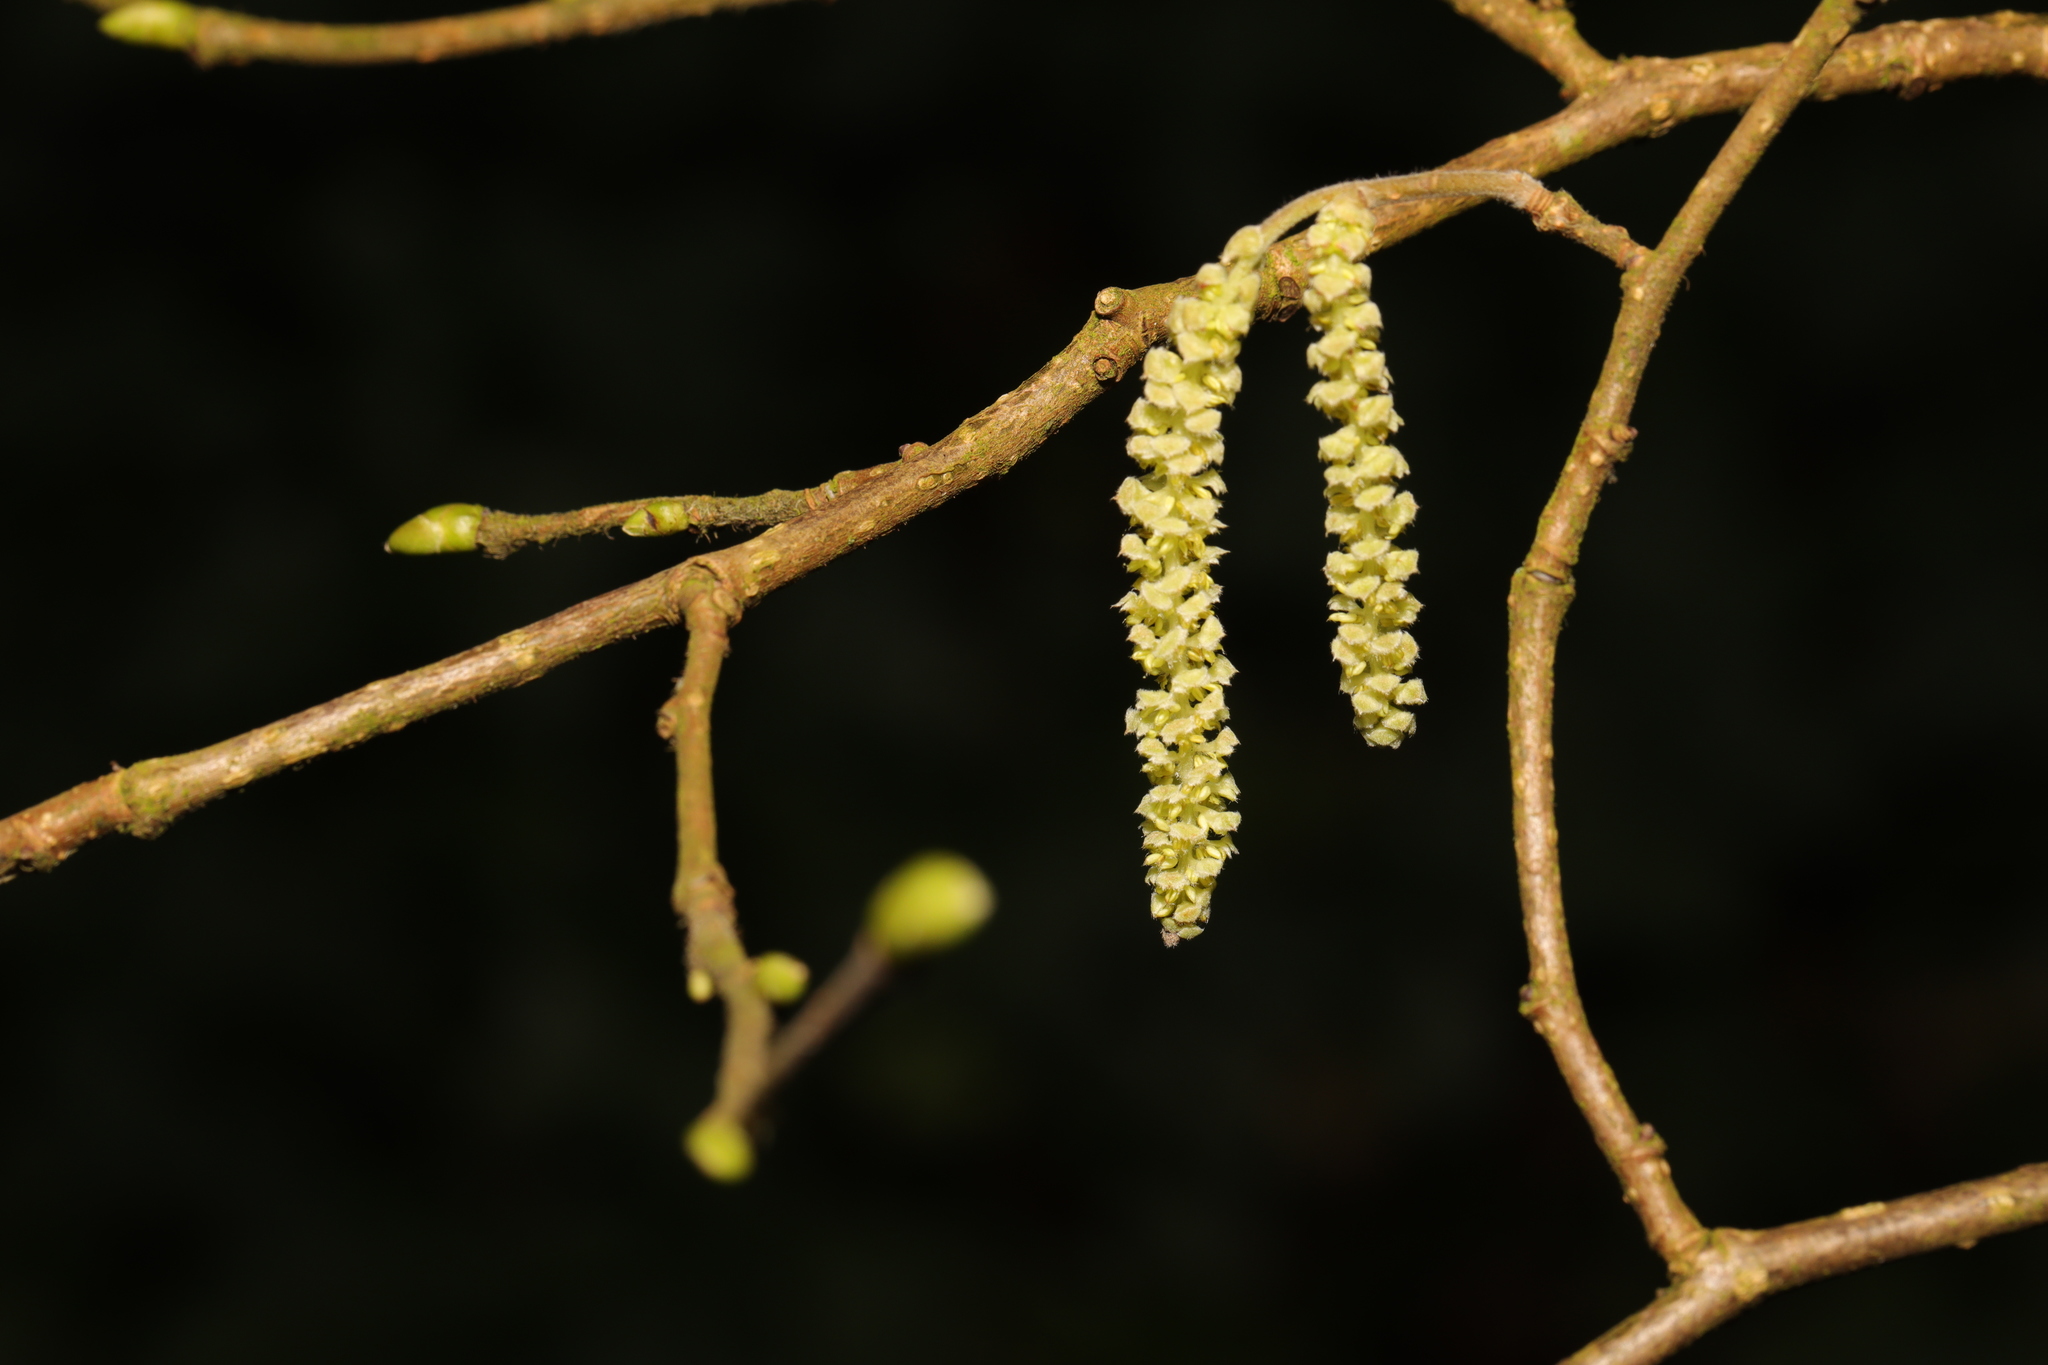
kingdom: Plantae
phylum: Tracheophyta
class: Magnoliopsida
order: Fagales
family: Betulaceae
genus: Corylus
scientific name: Corylus avellana
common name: European hazel
